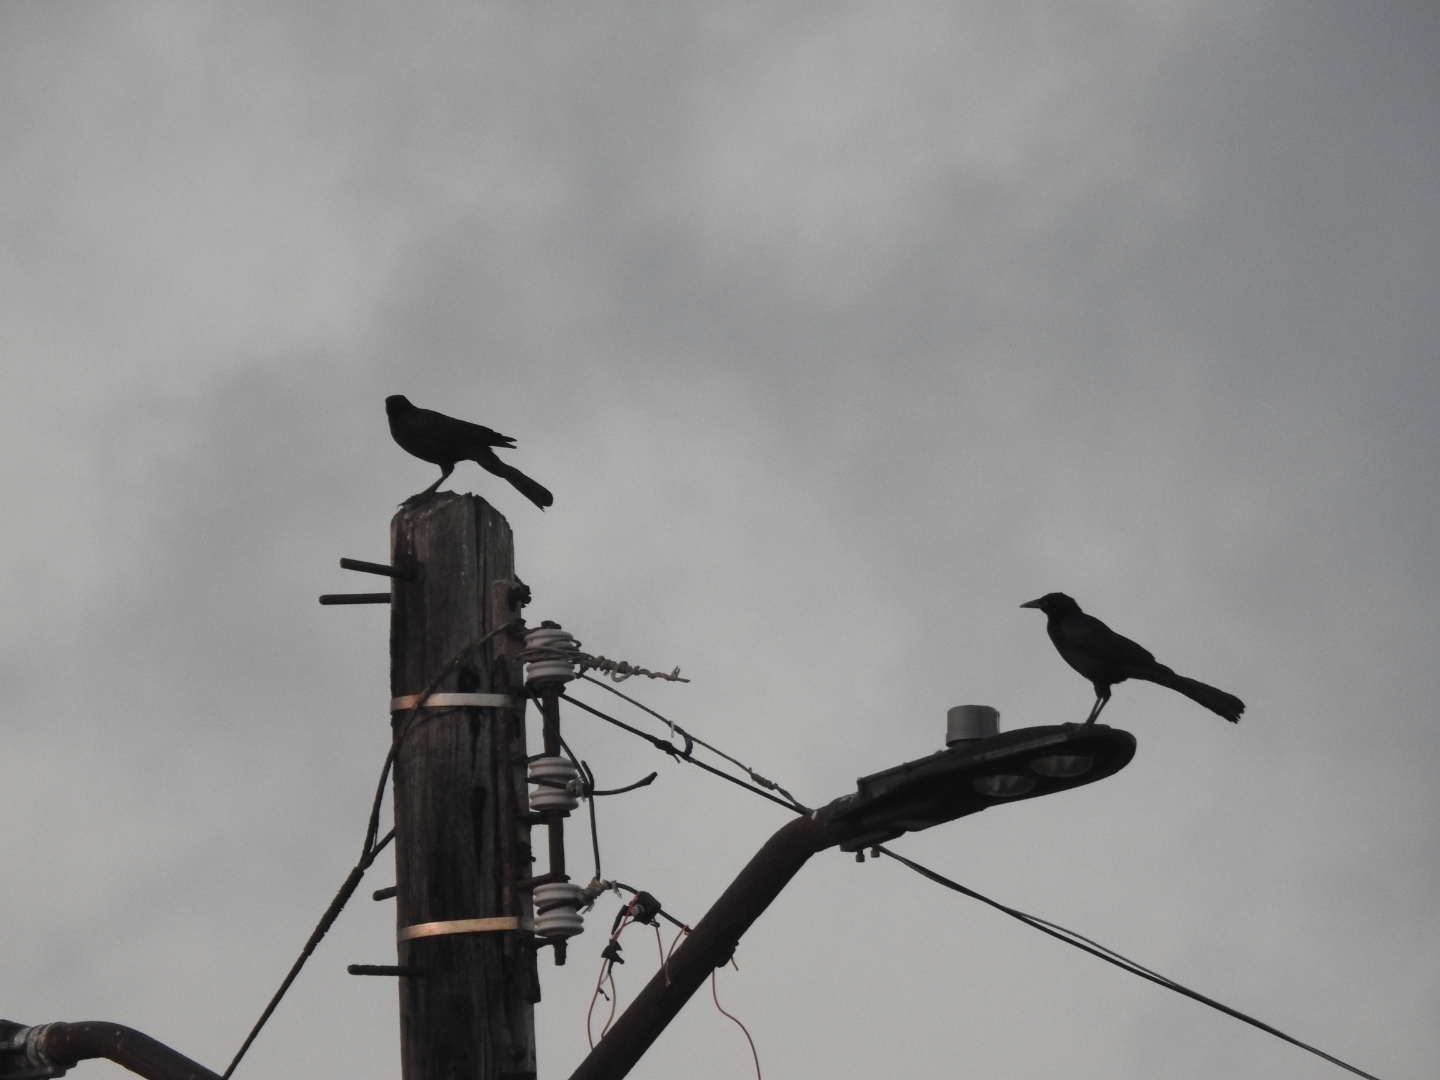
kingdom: Animalia
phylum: Chordata
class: Aves
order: Passeriformes
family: Icteridae
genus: Quiscalus
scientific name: Quiscalus mexicanus
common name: Great-tailed grackle
